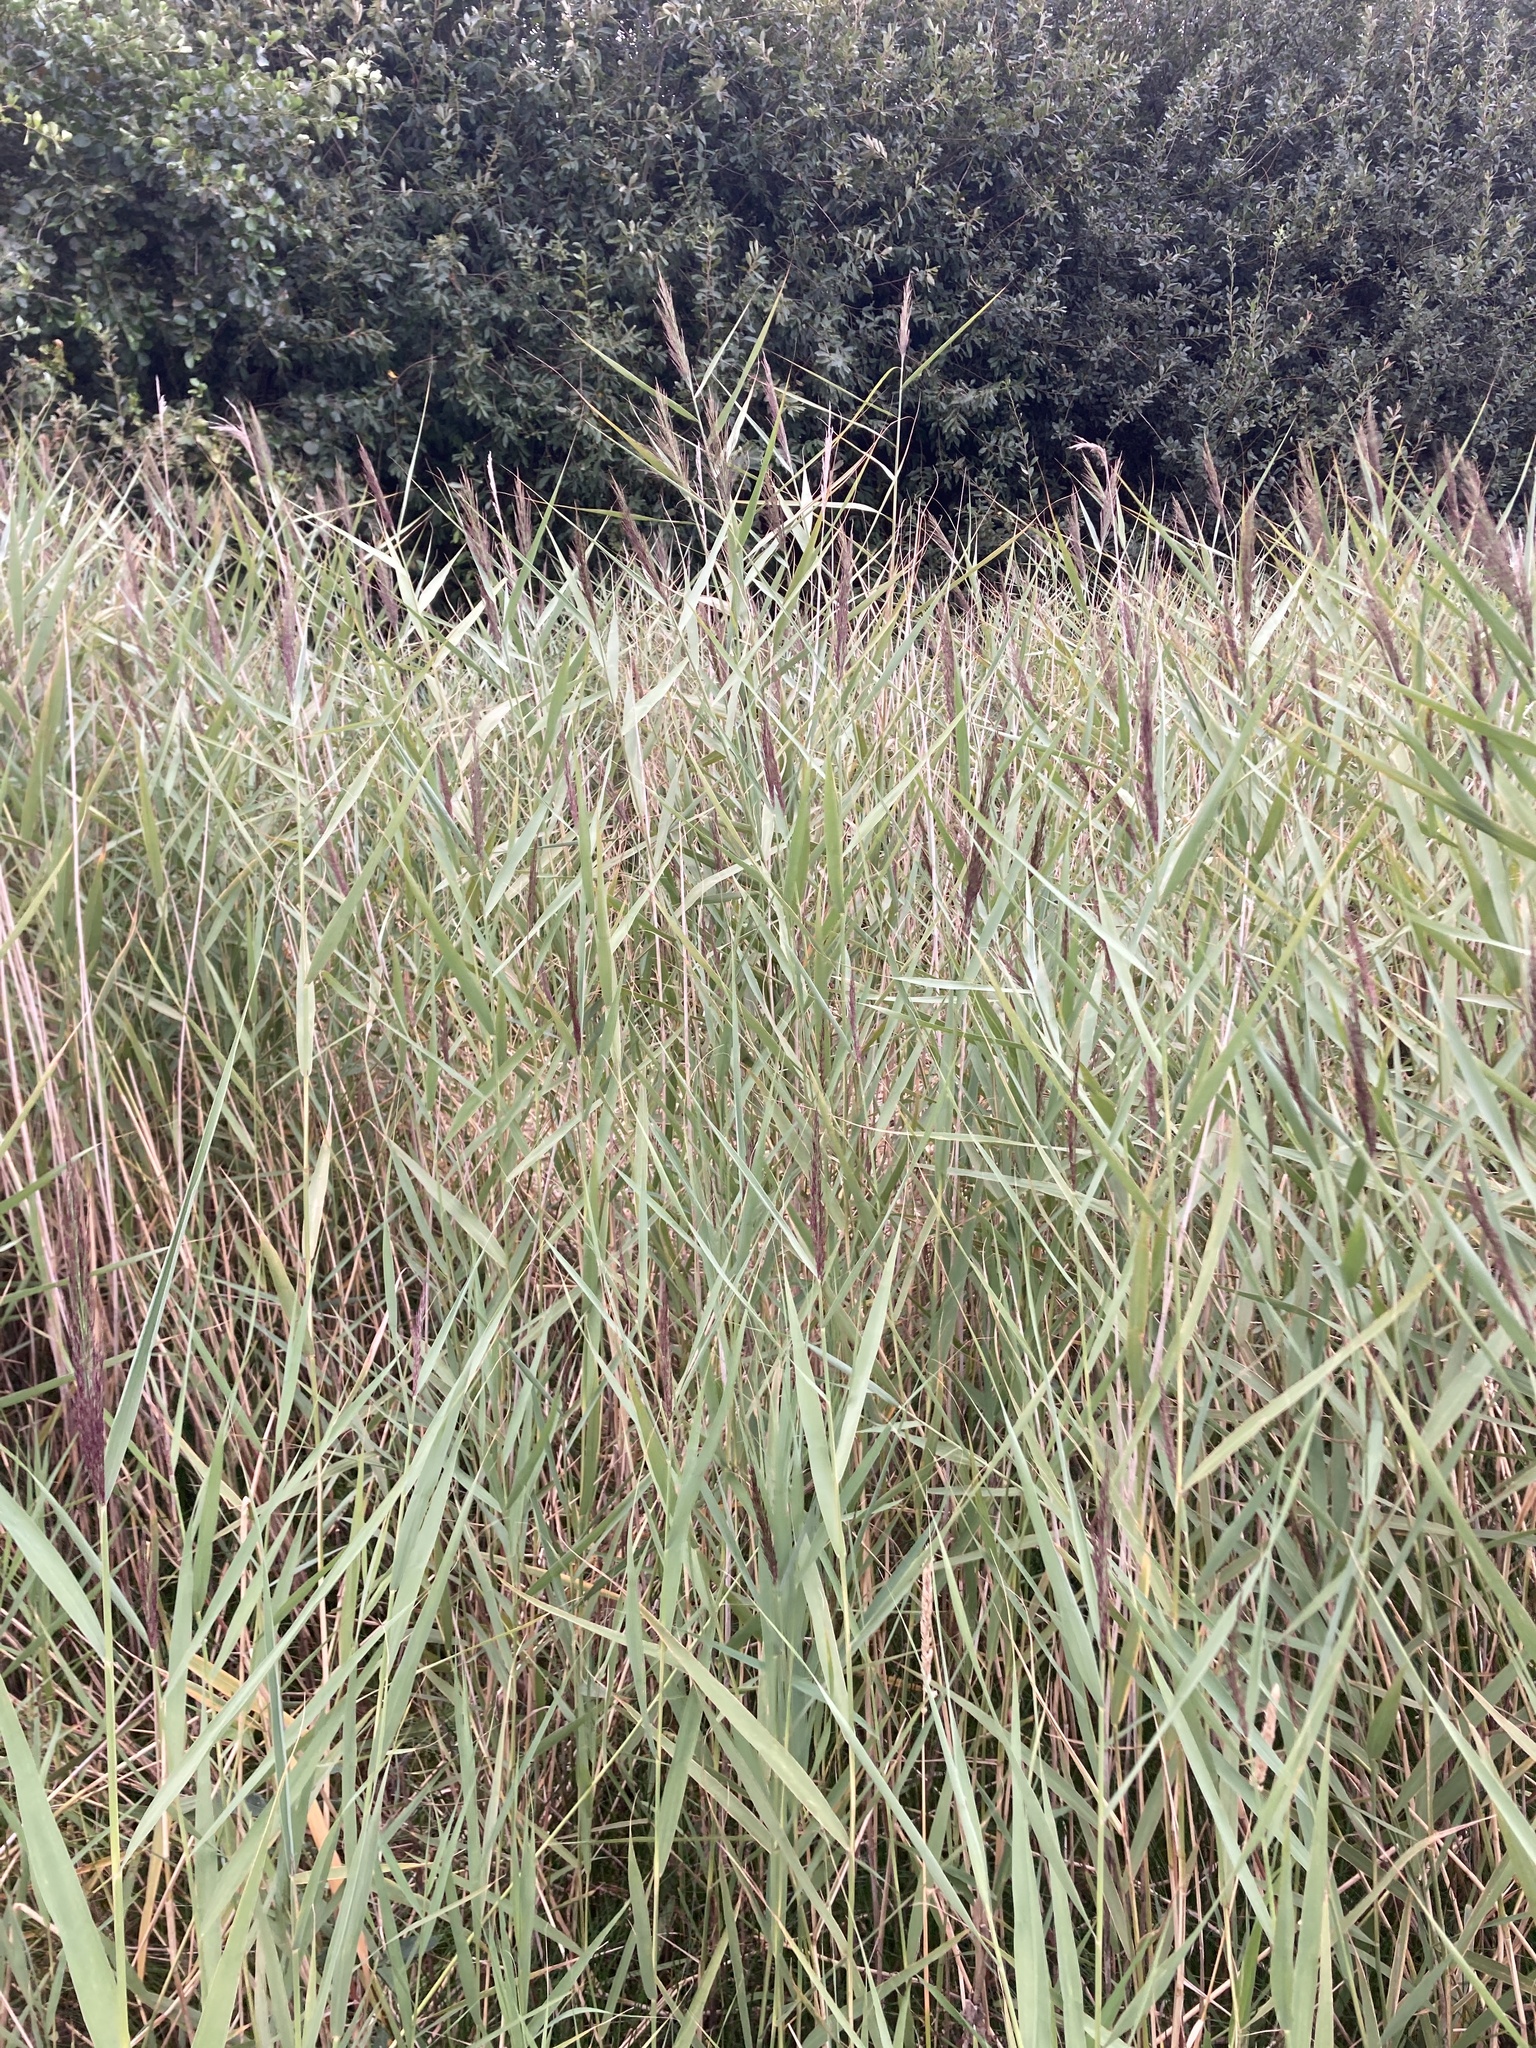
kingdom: Plantae
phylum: Tracheophyta
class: Liliopsida
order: Poales
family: Poaceae
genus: Phragmites
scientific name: Phragmites australis
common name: Common reed
